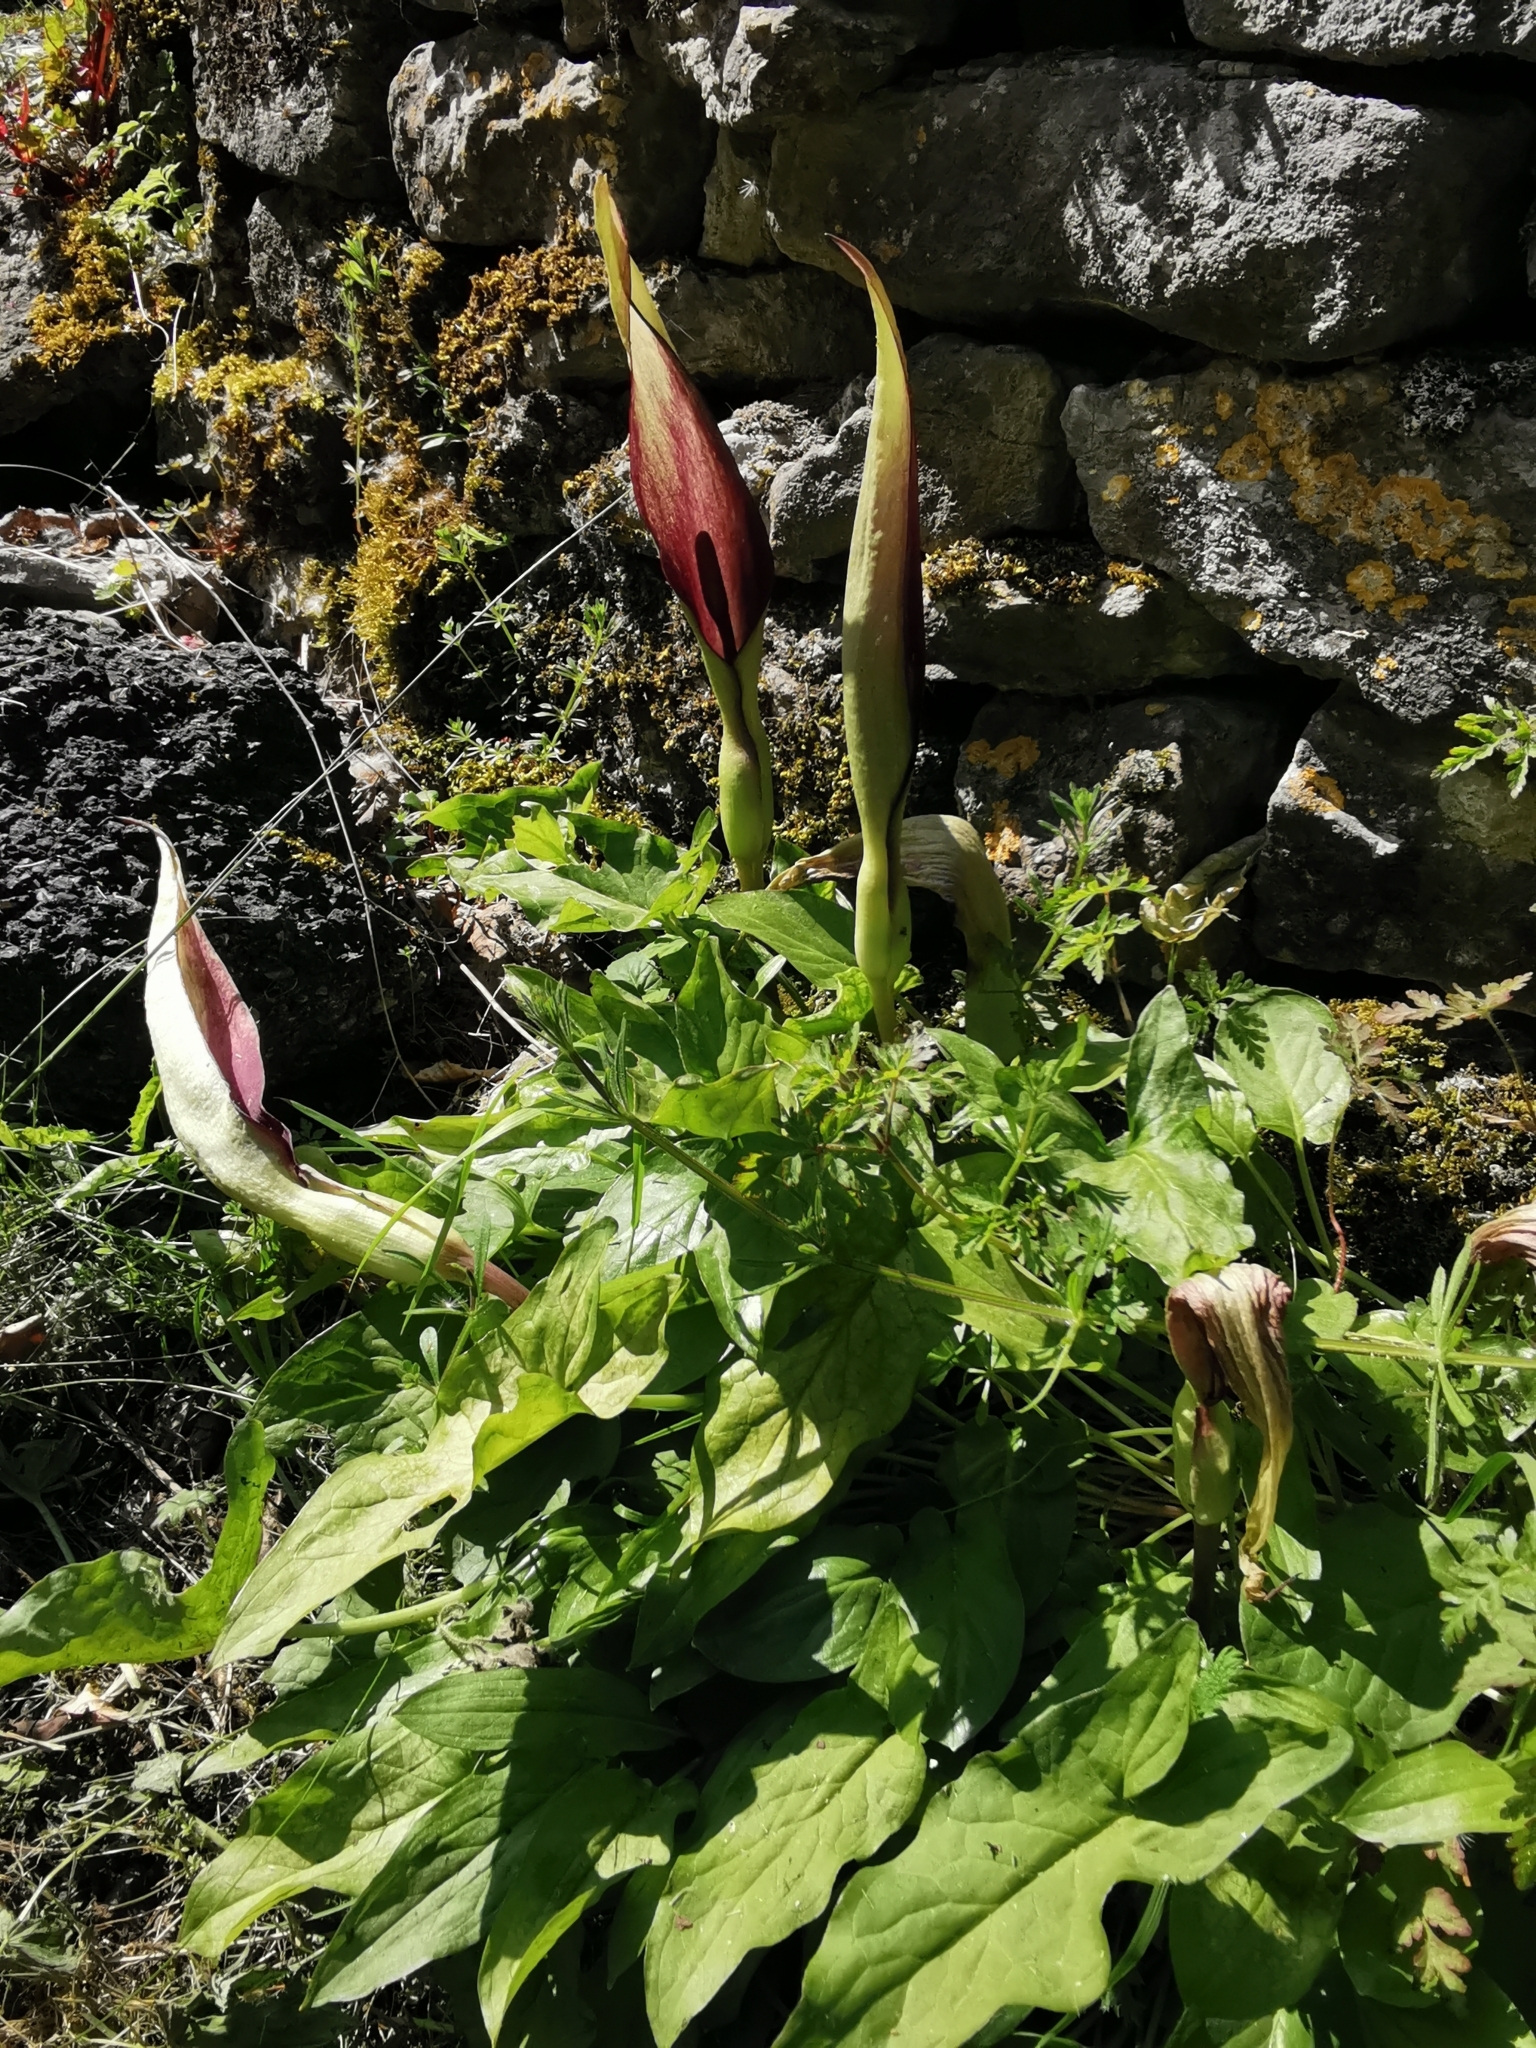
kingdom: Plantae
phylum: Tracheophyta
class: Liliopsida
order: Alismatales
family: Araceae
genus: Arum
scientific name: Arum maculatum
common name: Lords-and-ladies
